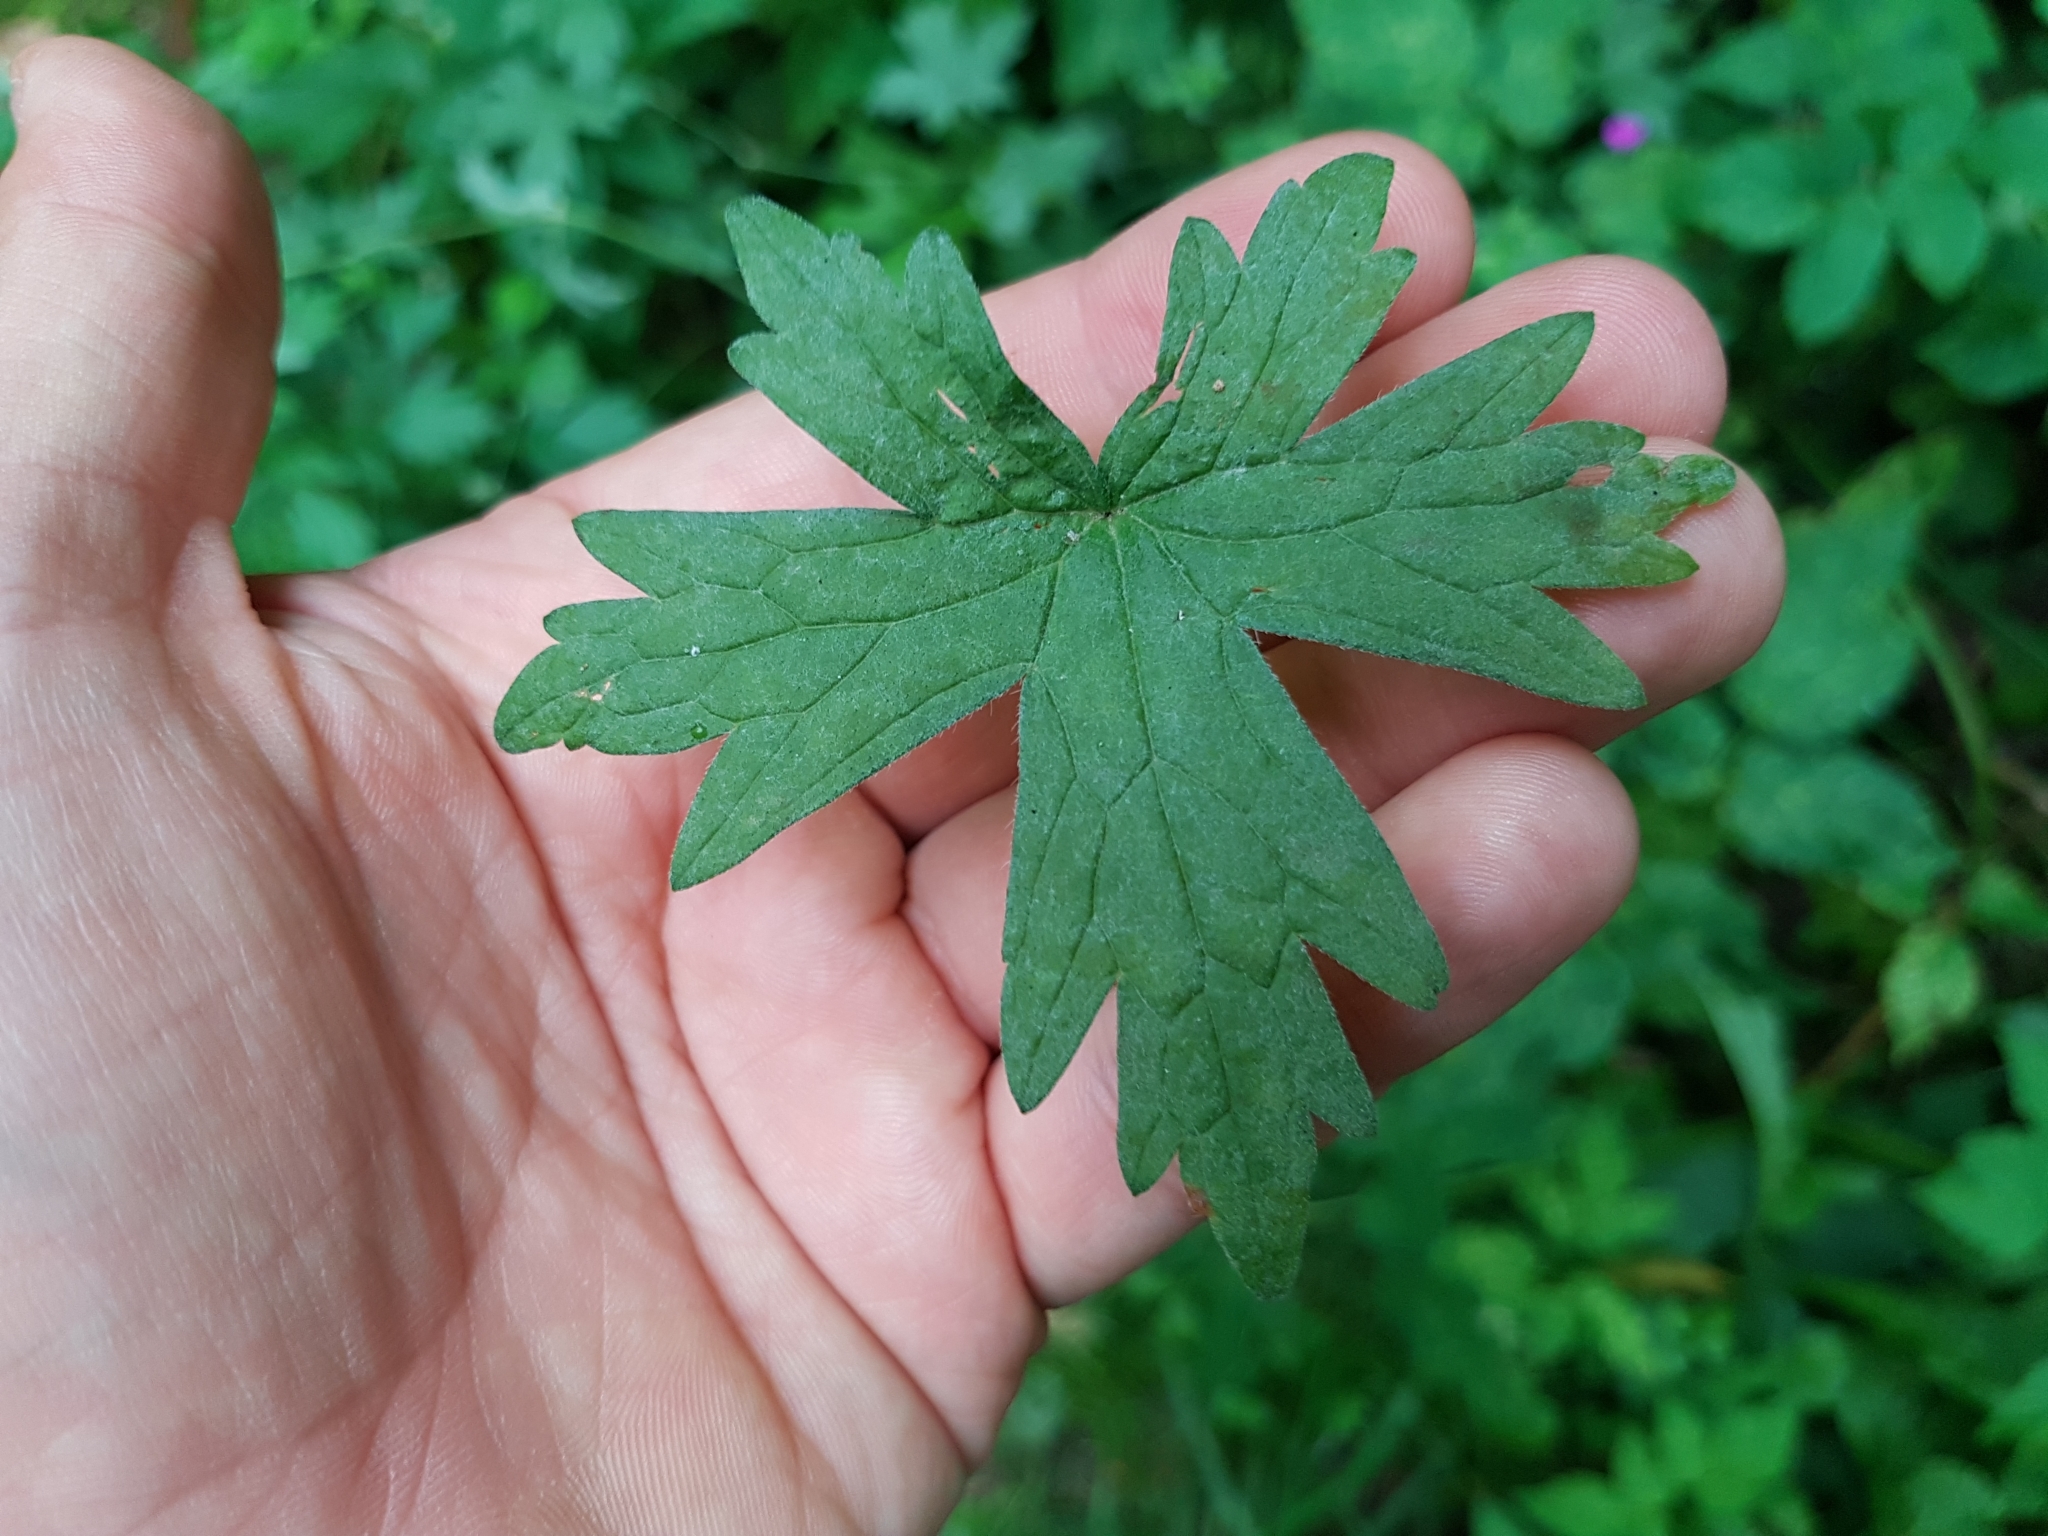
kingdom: Plantae
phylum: Tracheophyta
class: Magnoliopsida
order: Geraniales
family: Geraniaceae
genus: Geranium
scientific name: Geranium palustre
